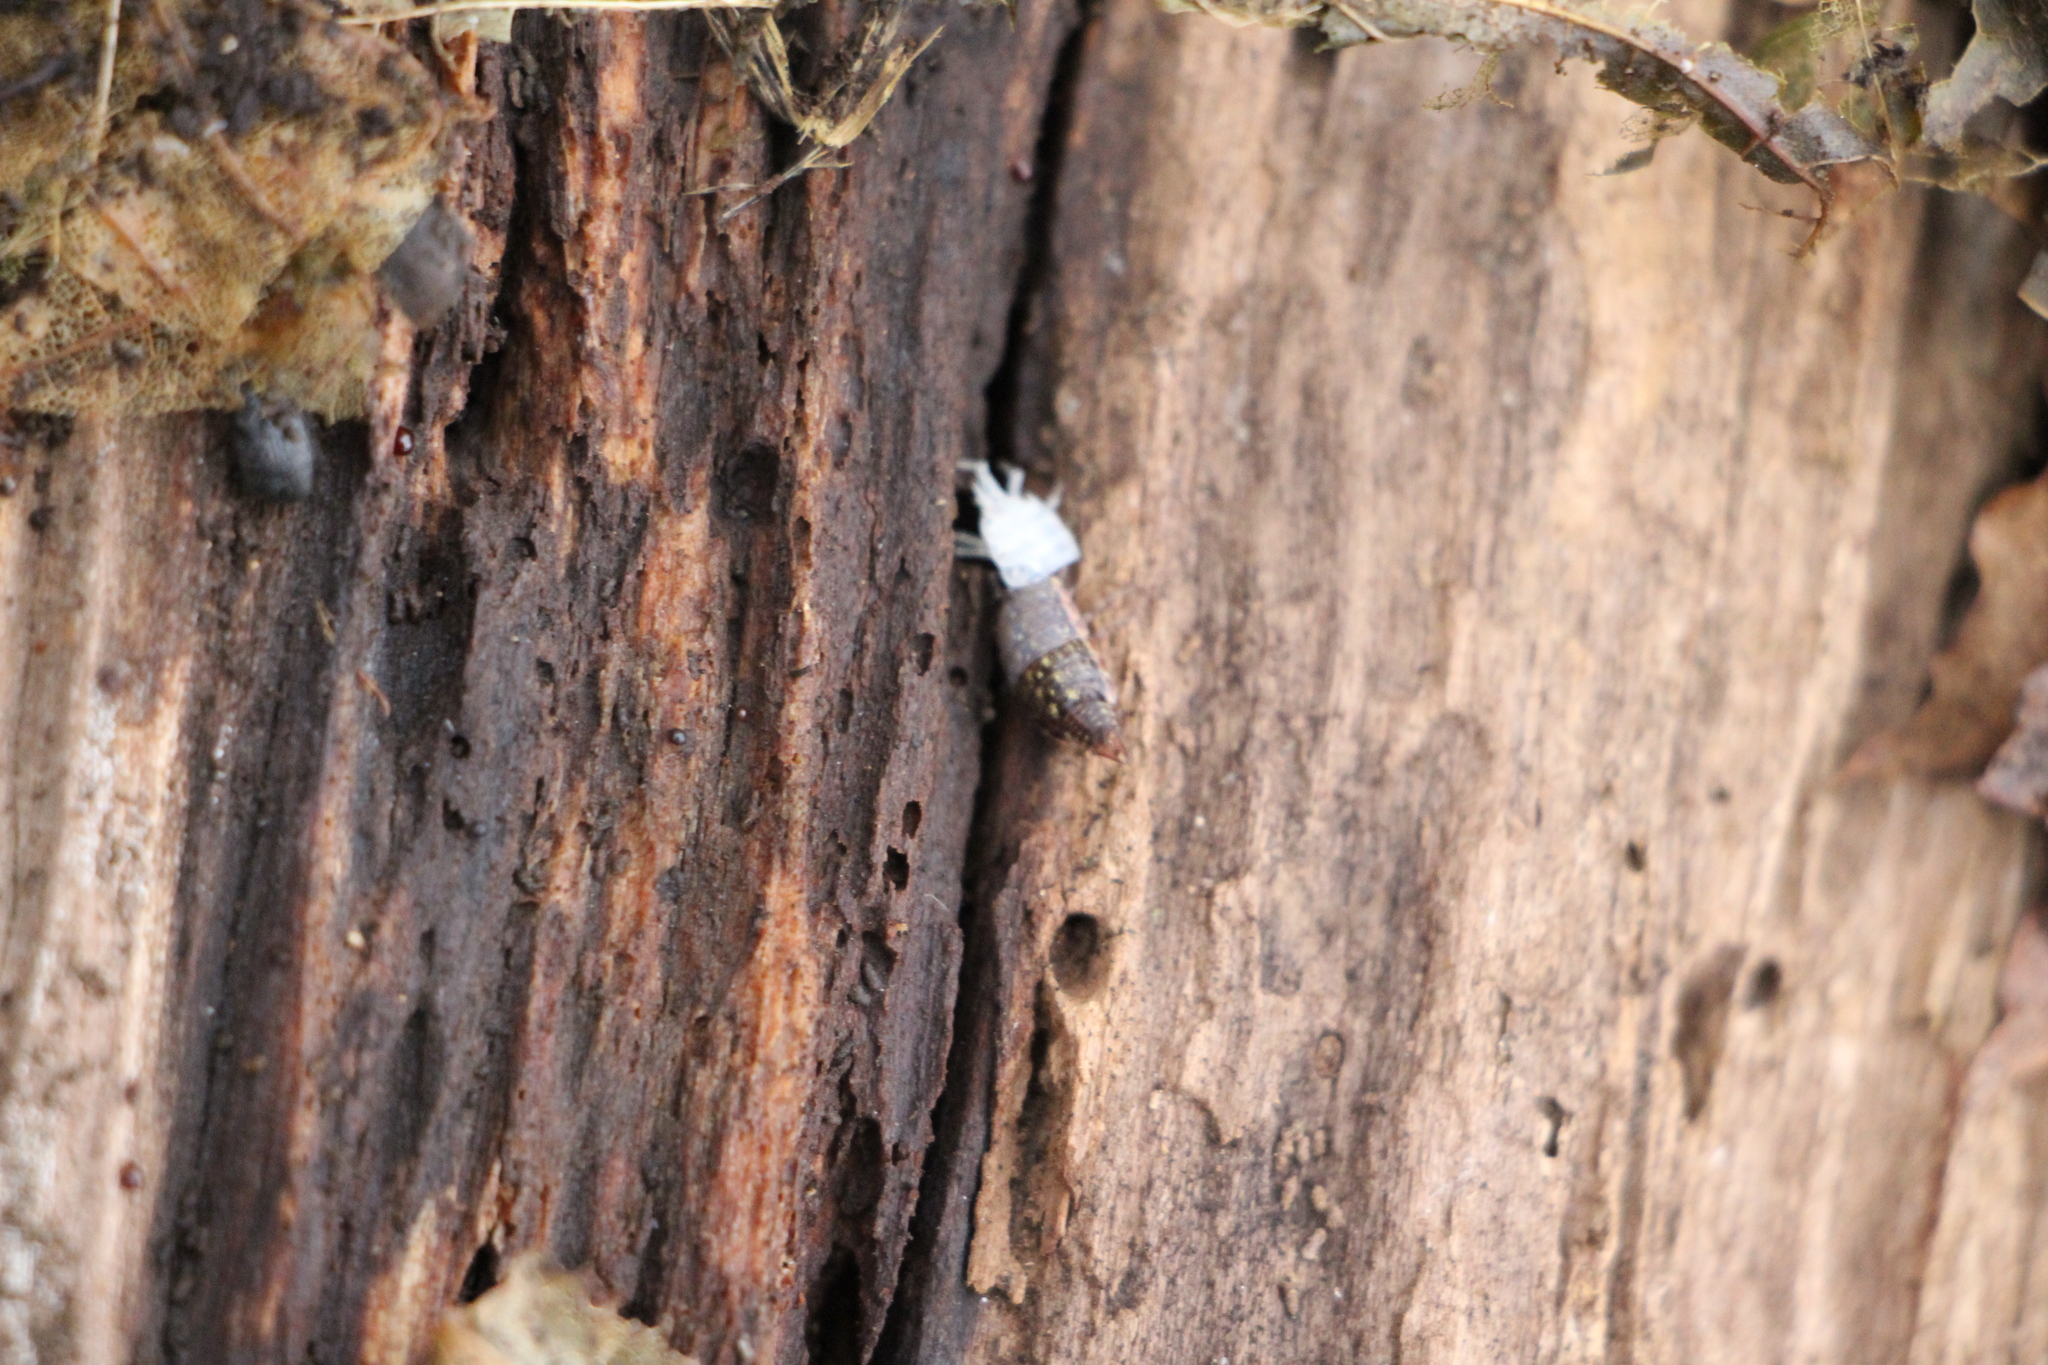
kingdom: Animalia
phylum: Arthropoda
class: Malacostraca
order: Isopoda
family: Philosciidae
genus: Philoscia
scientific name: Philoscia muscorum
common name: Common striped woodlouse
